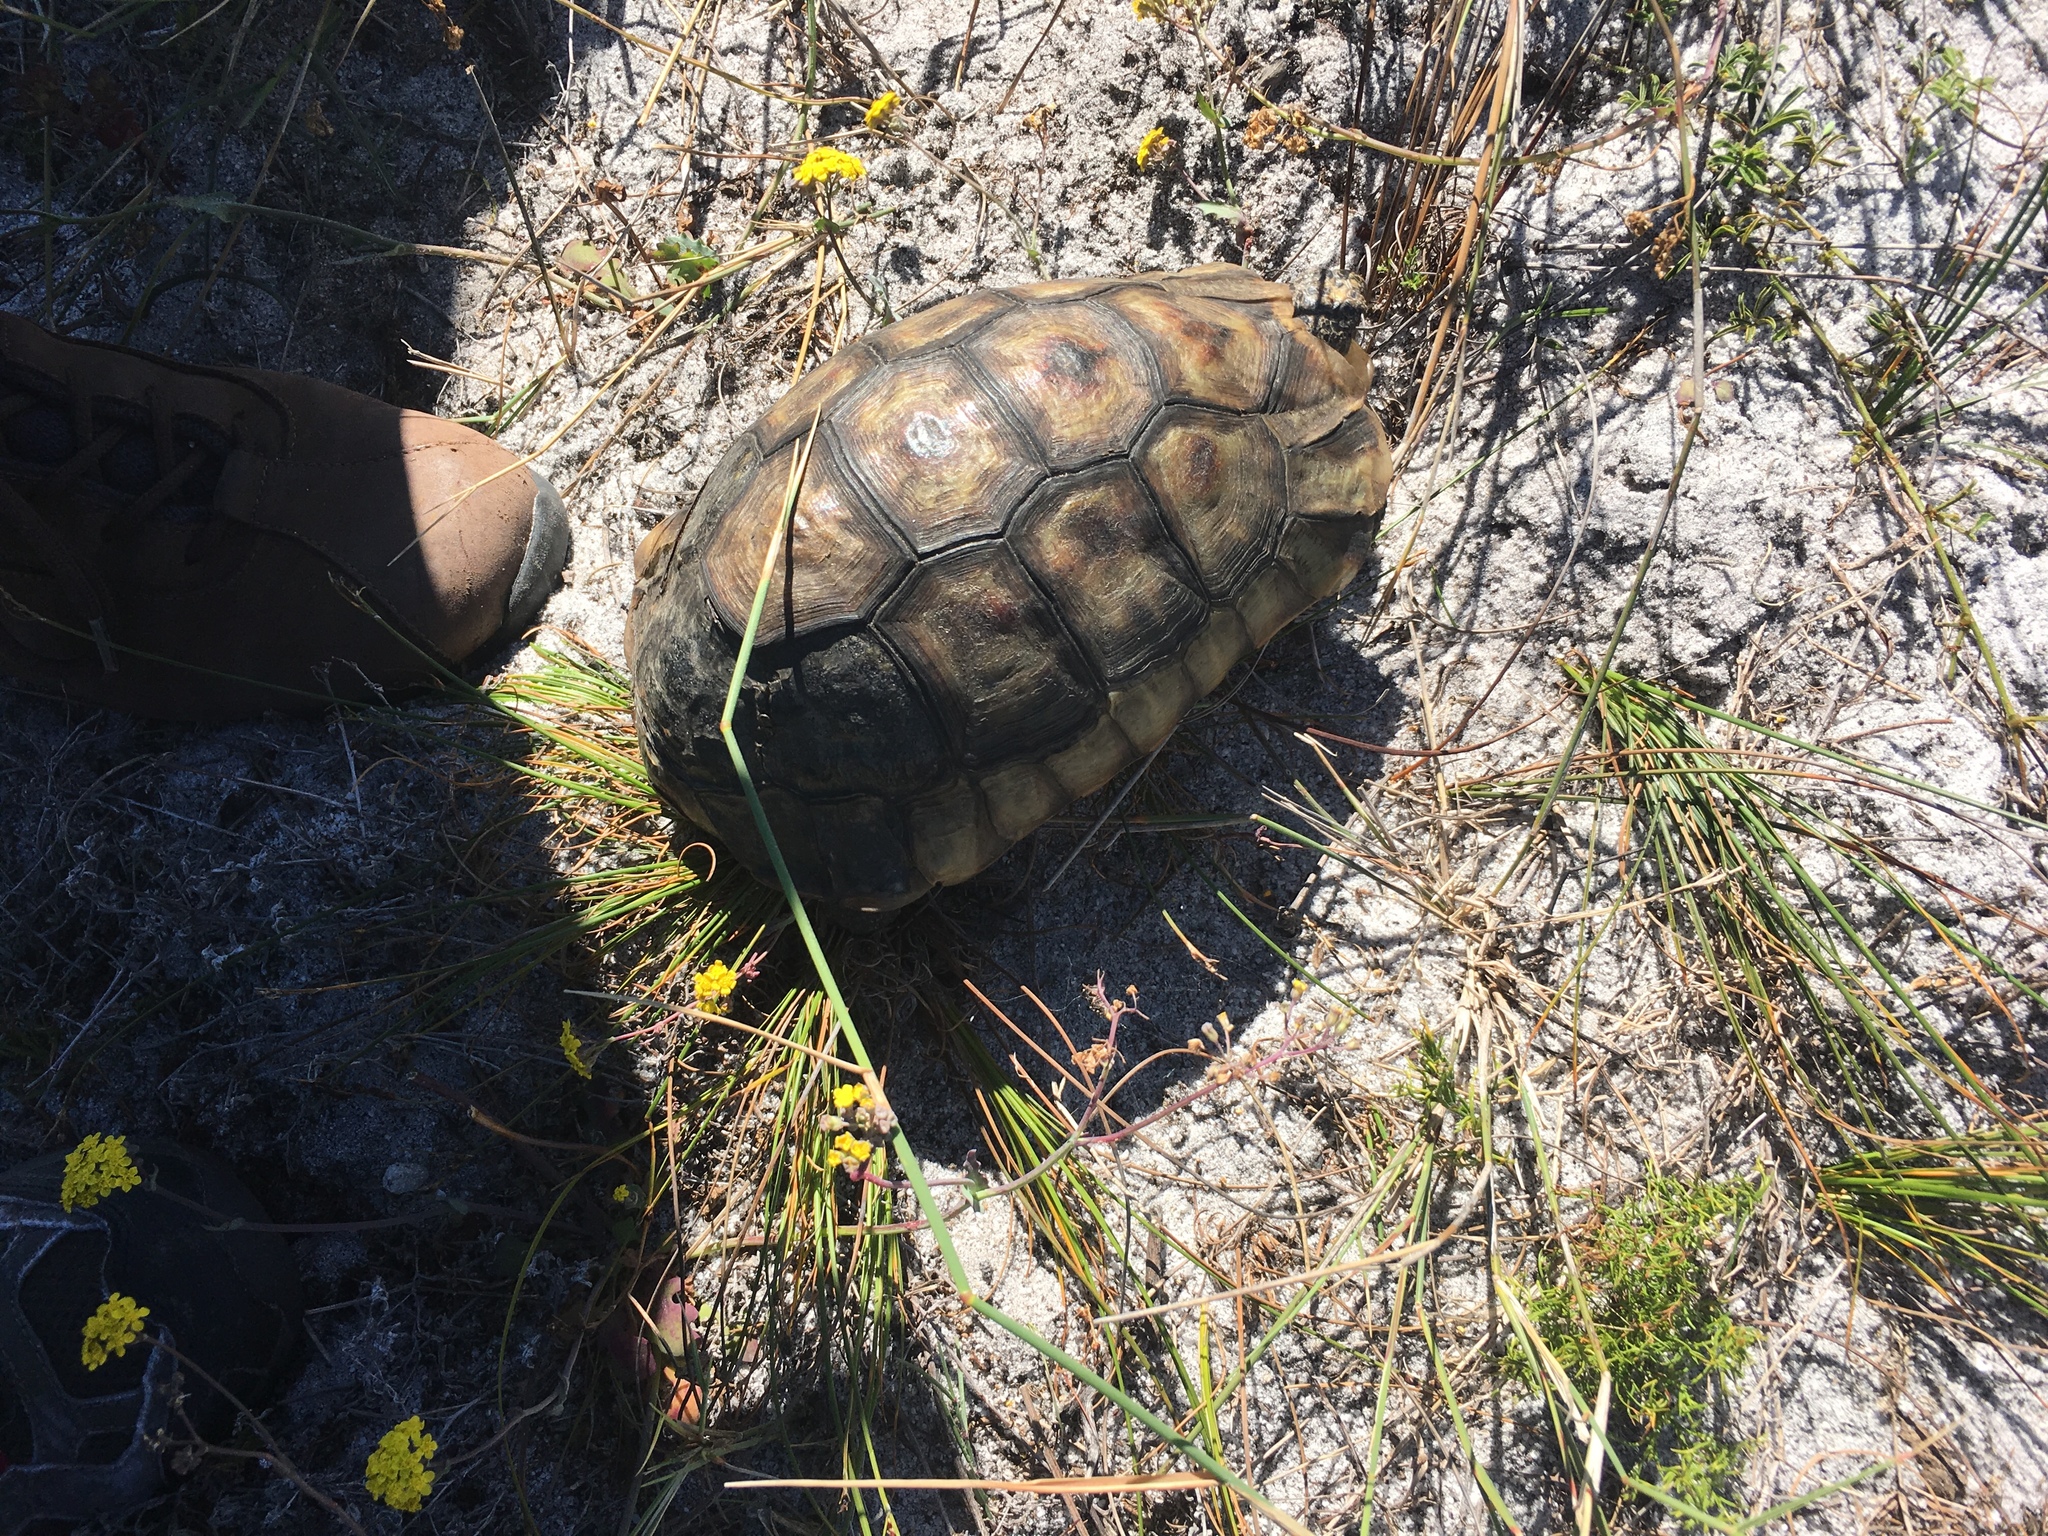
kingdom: Animalia
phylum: Chordata
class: Testudines
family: Testudinidae
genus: Chersina
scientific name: Chersina angulata
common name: South african bowsprit tortoise
